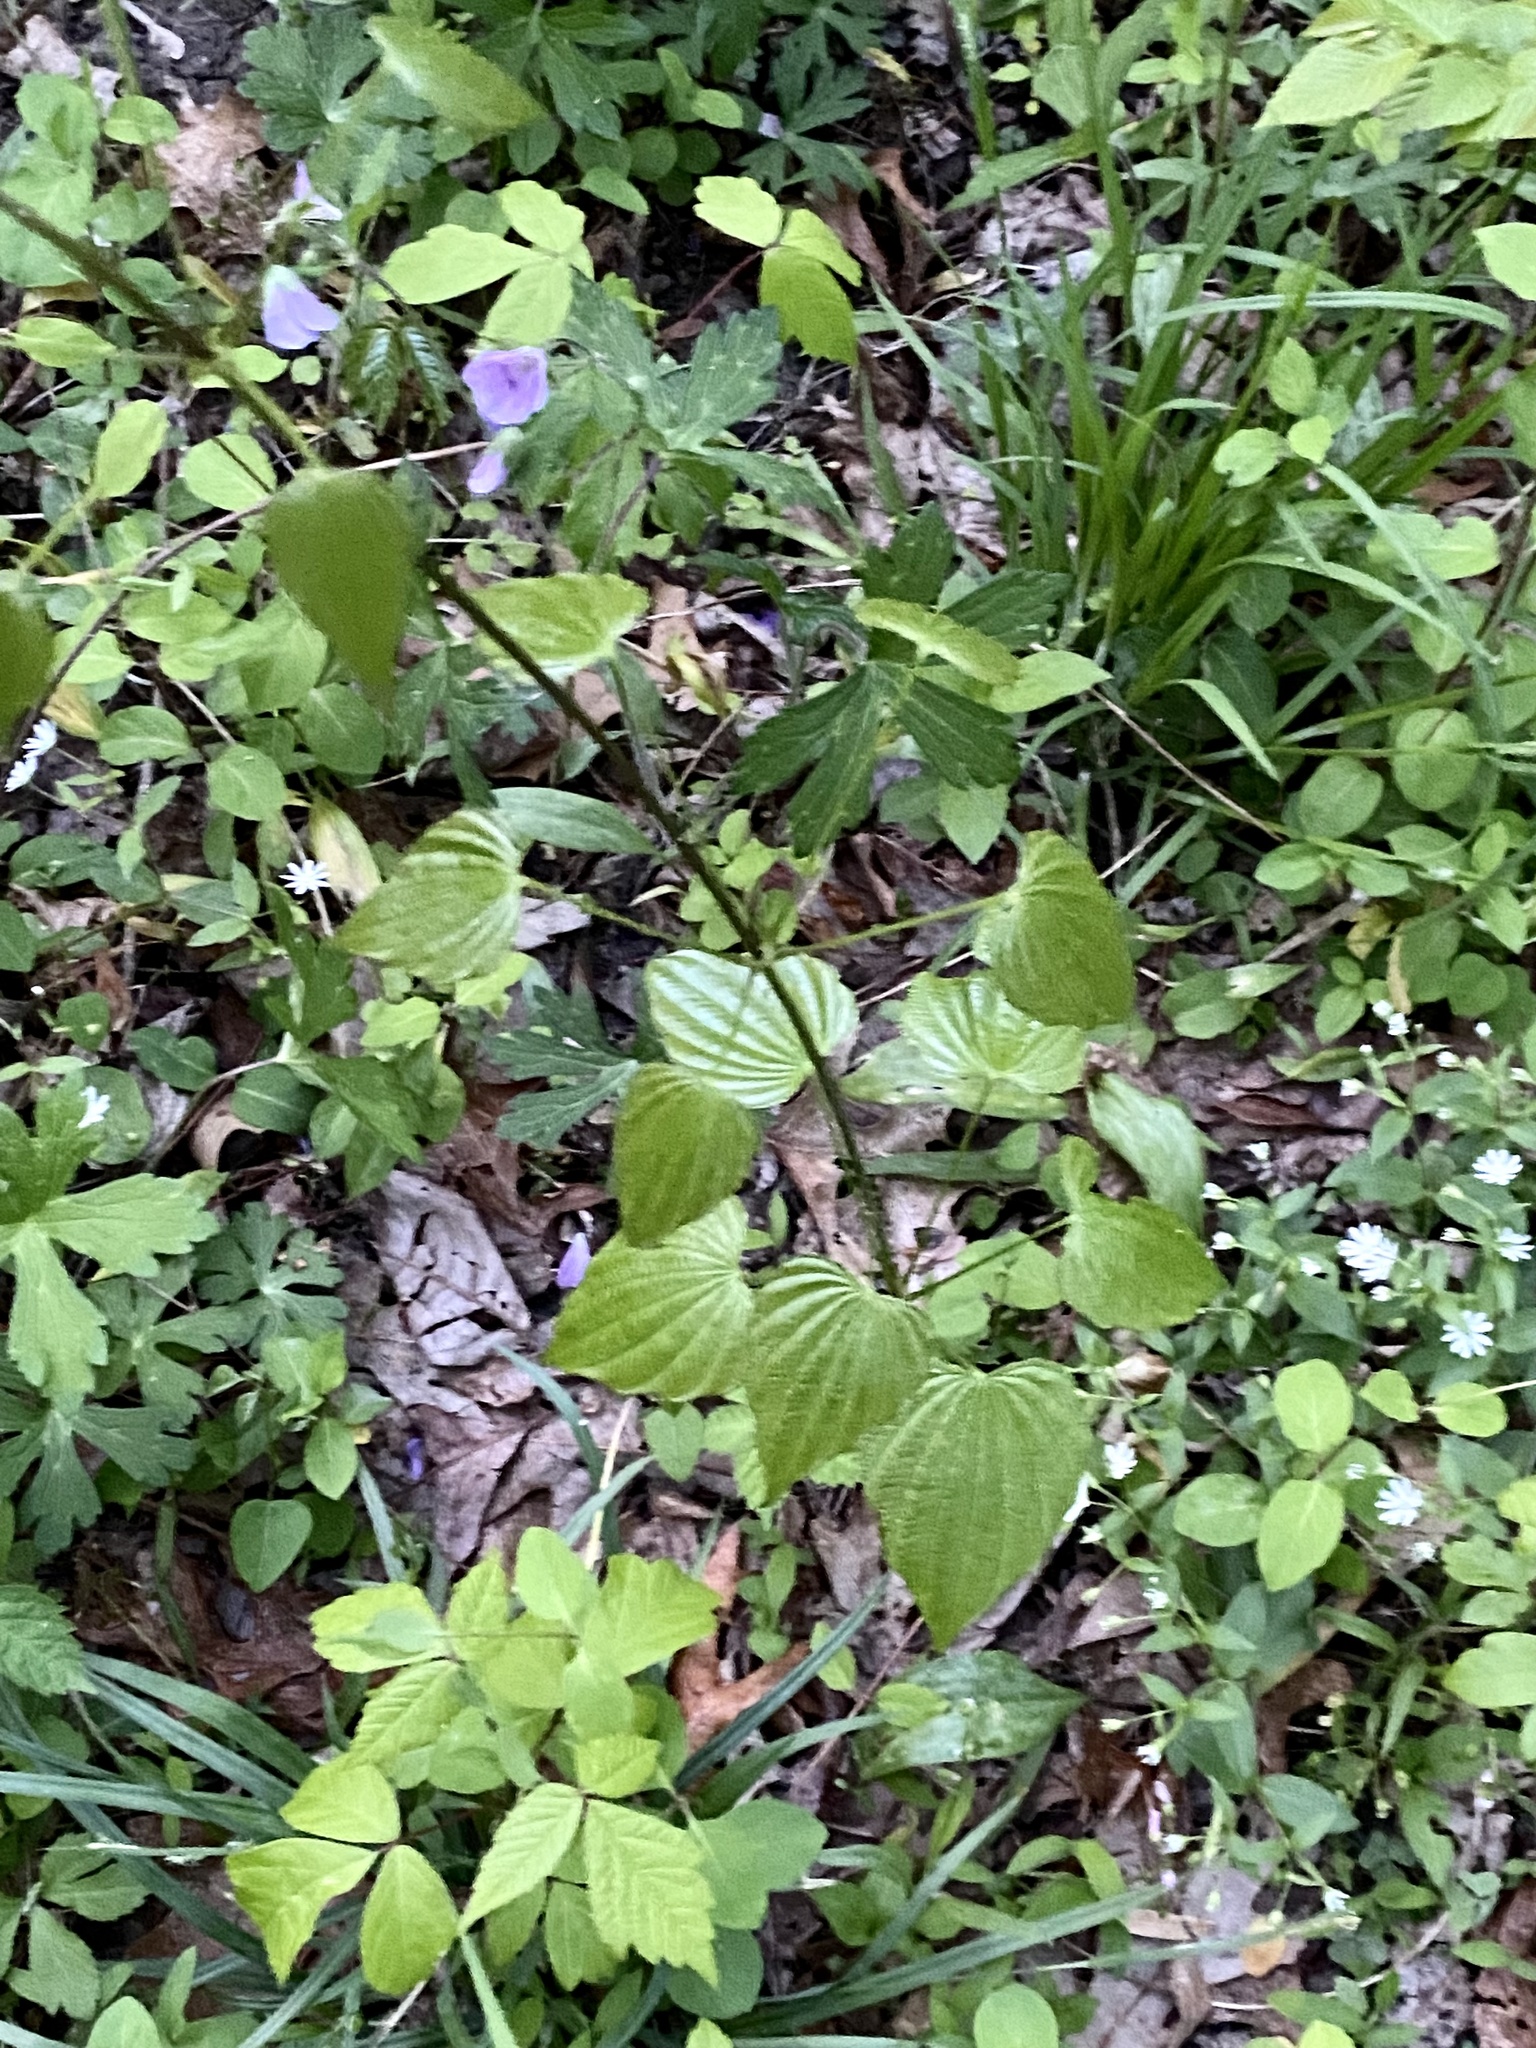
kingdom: Plantae
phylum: Tracheophyta
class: Liliopsida
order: Dioscoreales
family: Dioscoreaceae
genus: Dioscorea
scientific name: Dioscorea villosa
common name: Wild yam
